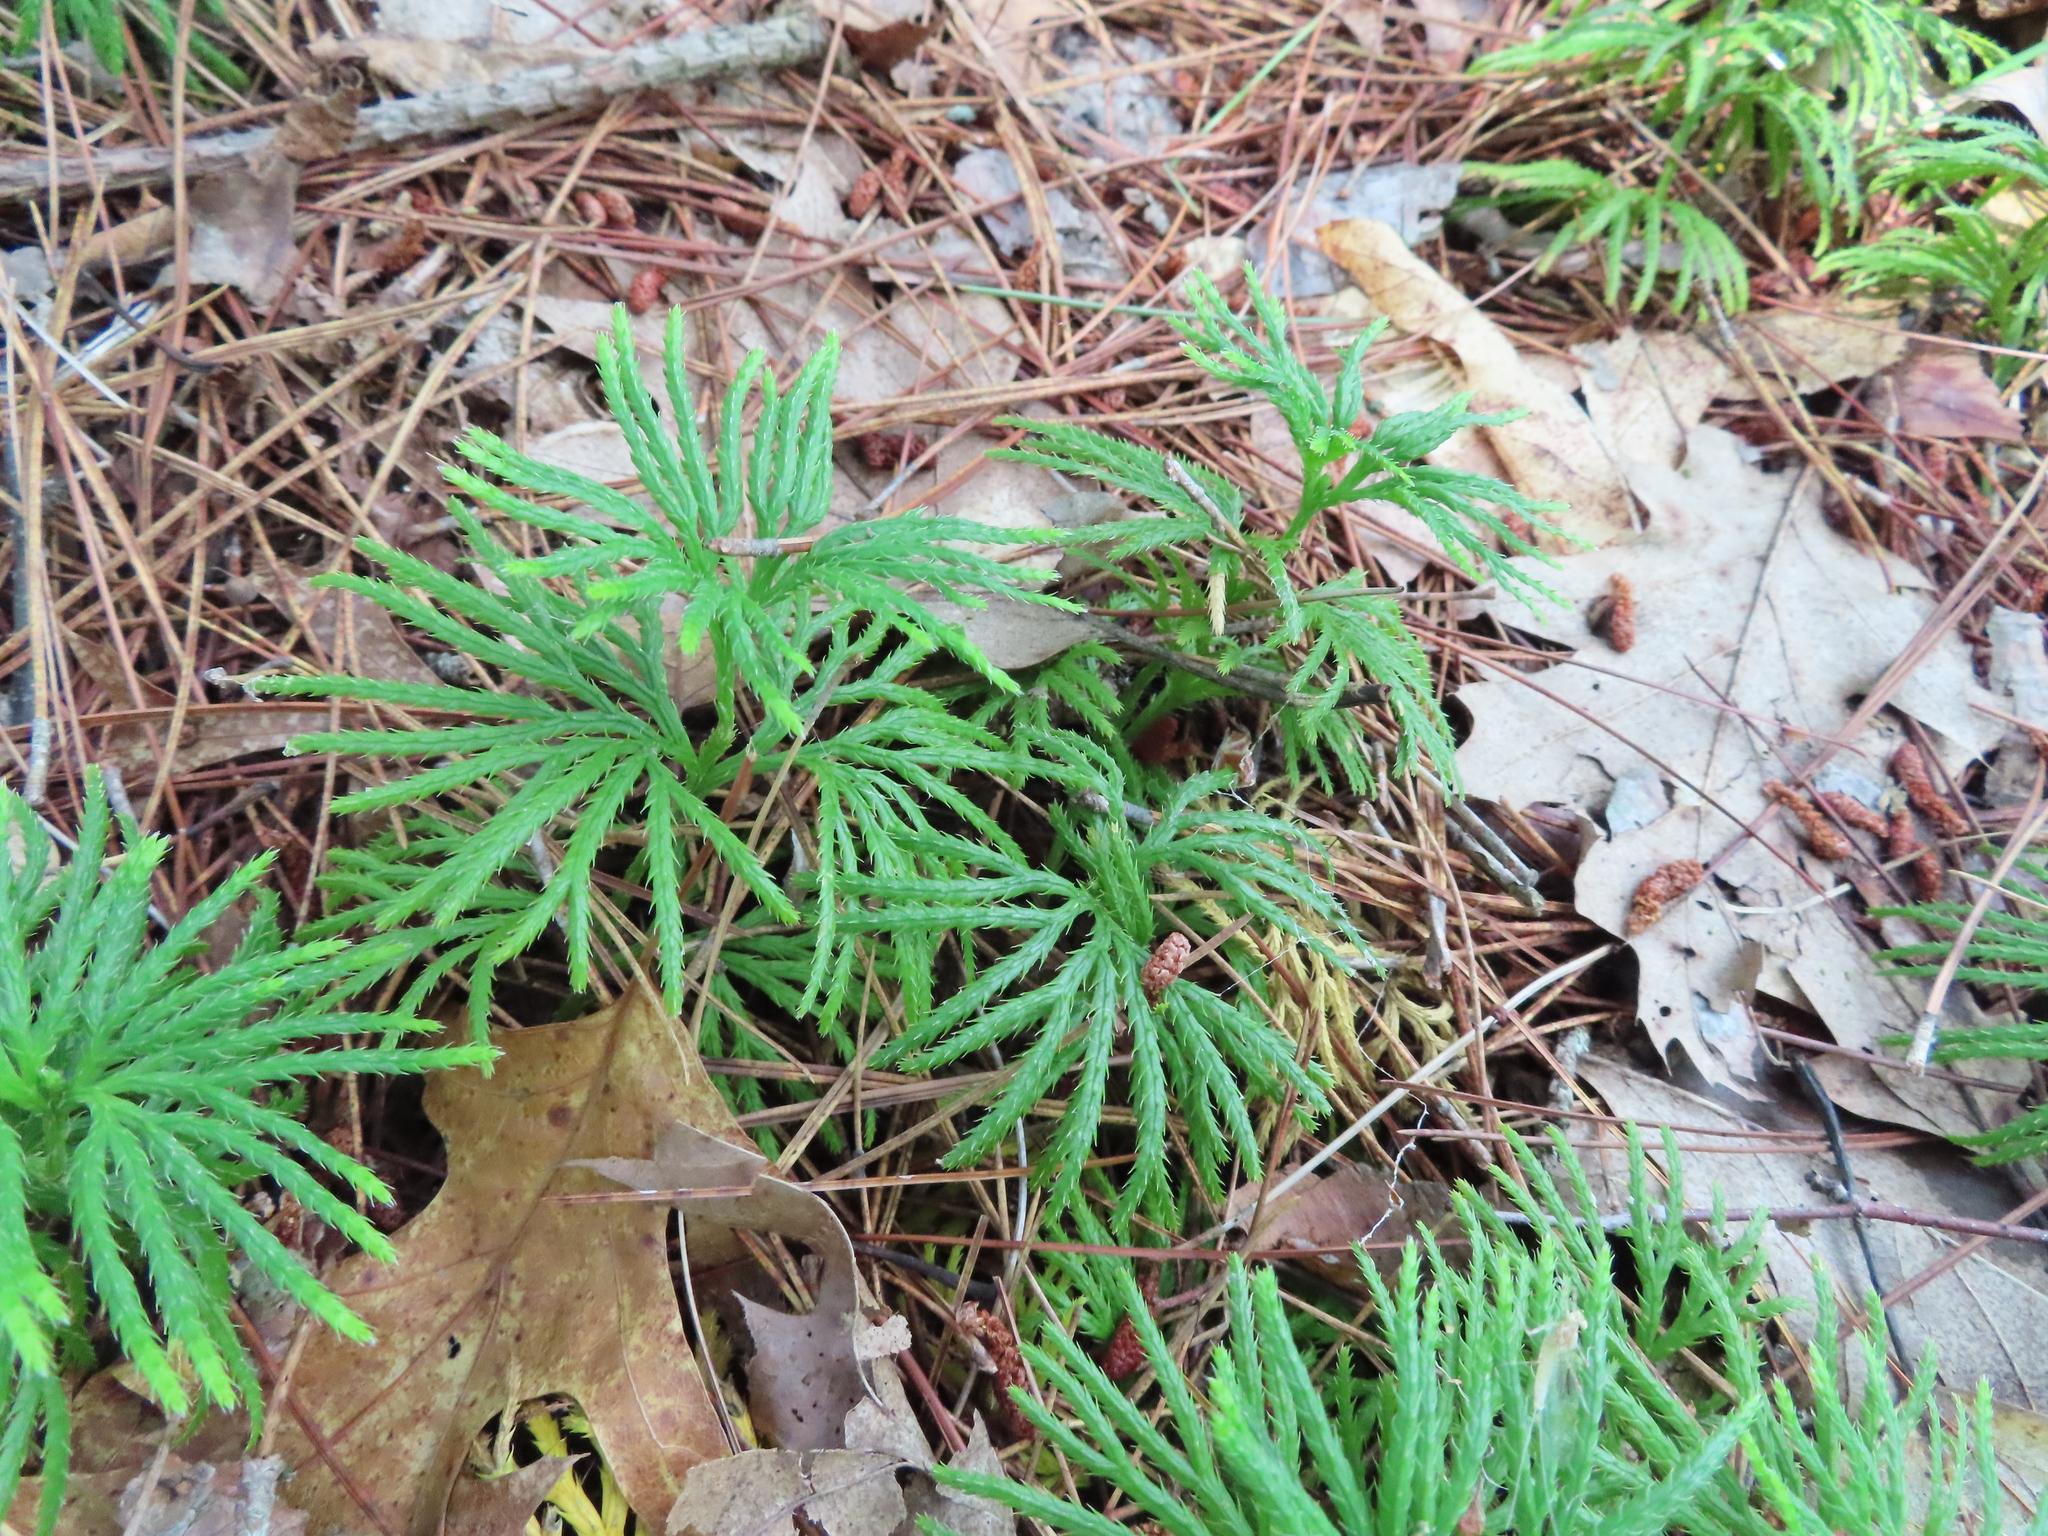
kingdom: Plantae
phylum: Tracheophyta
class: Lycopodiopsida
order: Lycopodiales
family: Lycopodiaceae
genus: Diphasiastrum
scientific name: Diphasiastrum digitatum
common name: Southern running-pine
